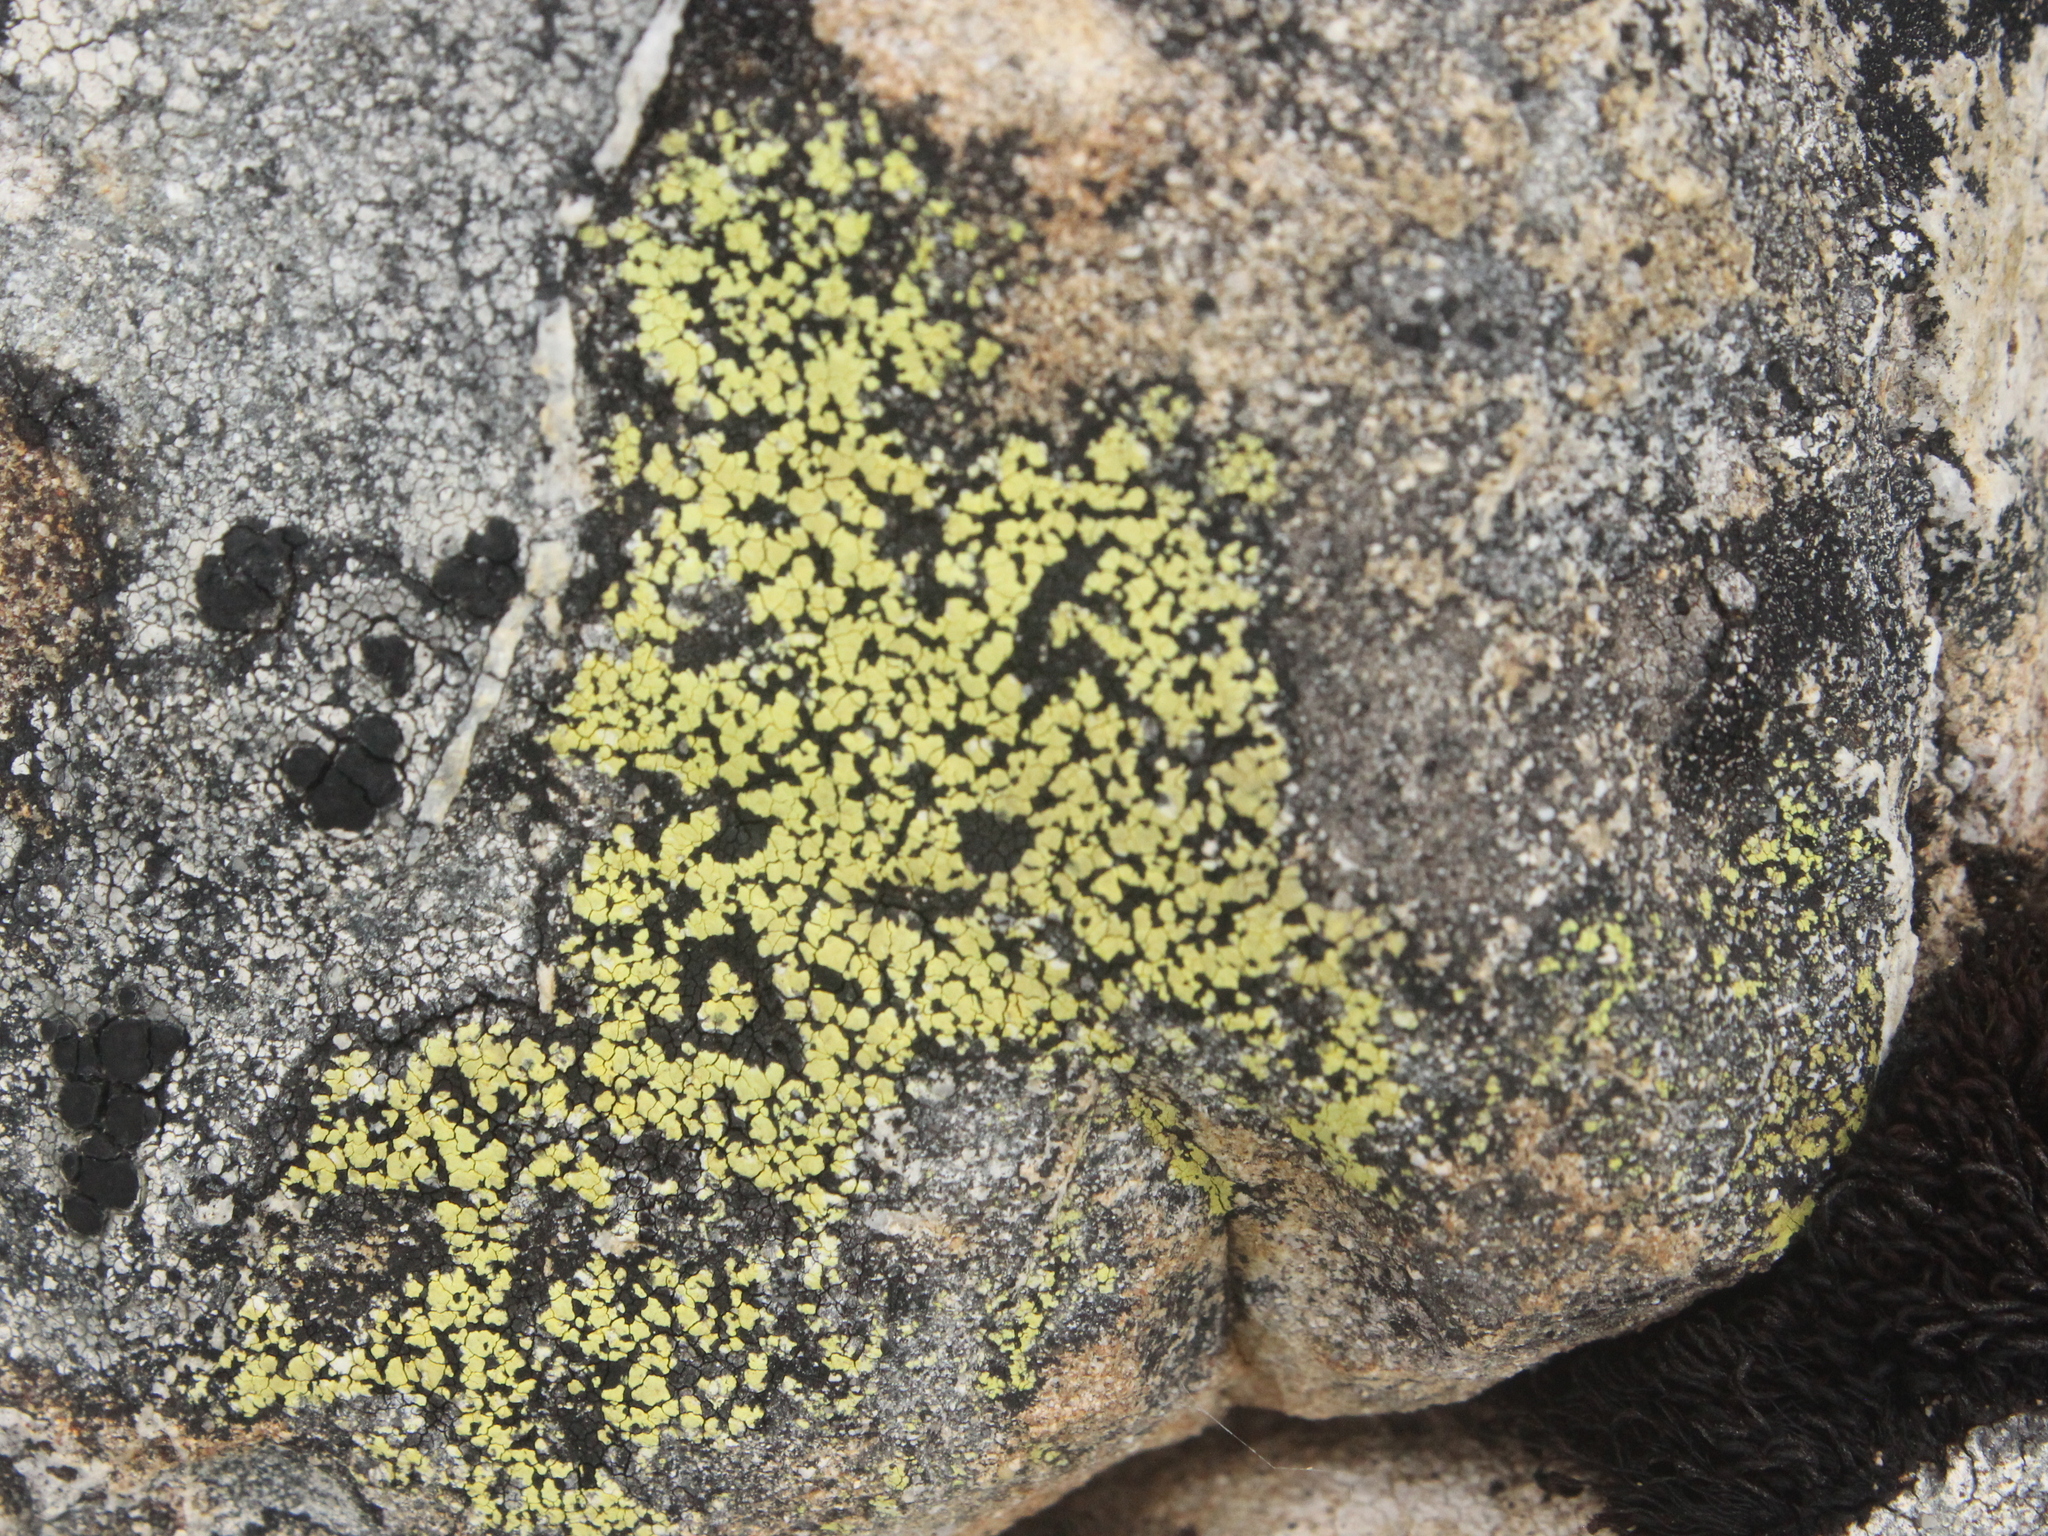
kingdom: Fungi
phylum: Ascomycota
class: Lecanoromycetes
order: Rhizocarpales
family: Rhizocarpaceae
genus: Rhizocarpon
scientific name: Rhizocarpon geographicum
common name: Yellow map lichen
